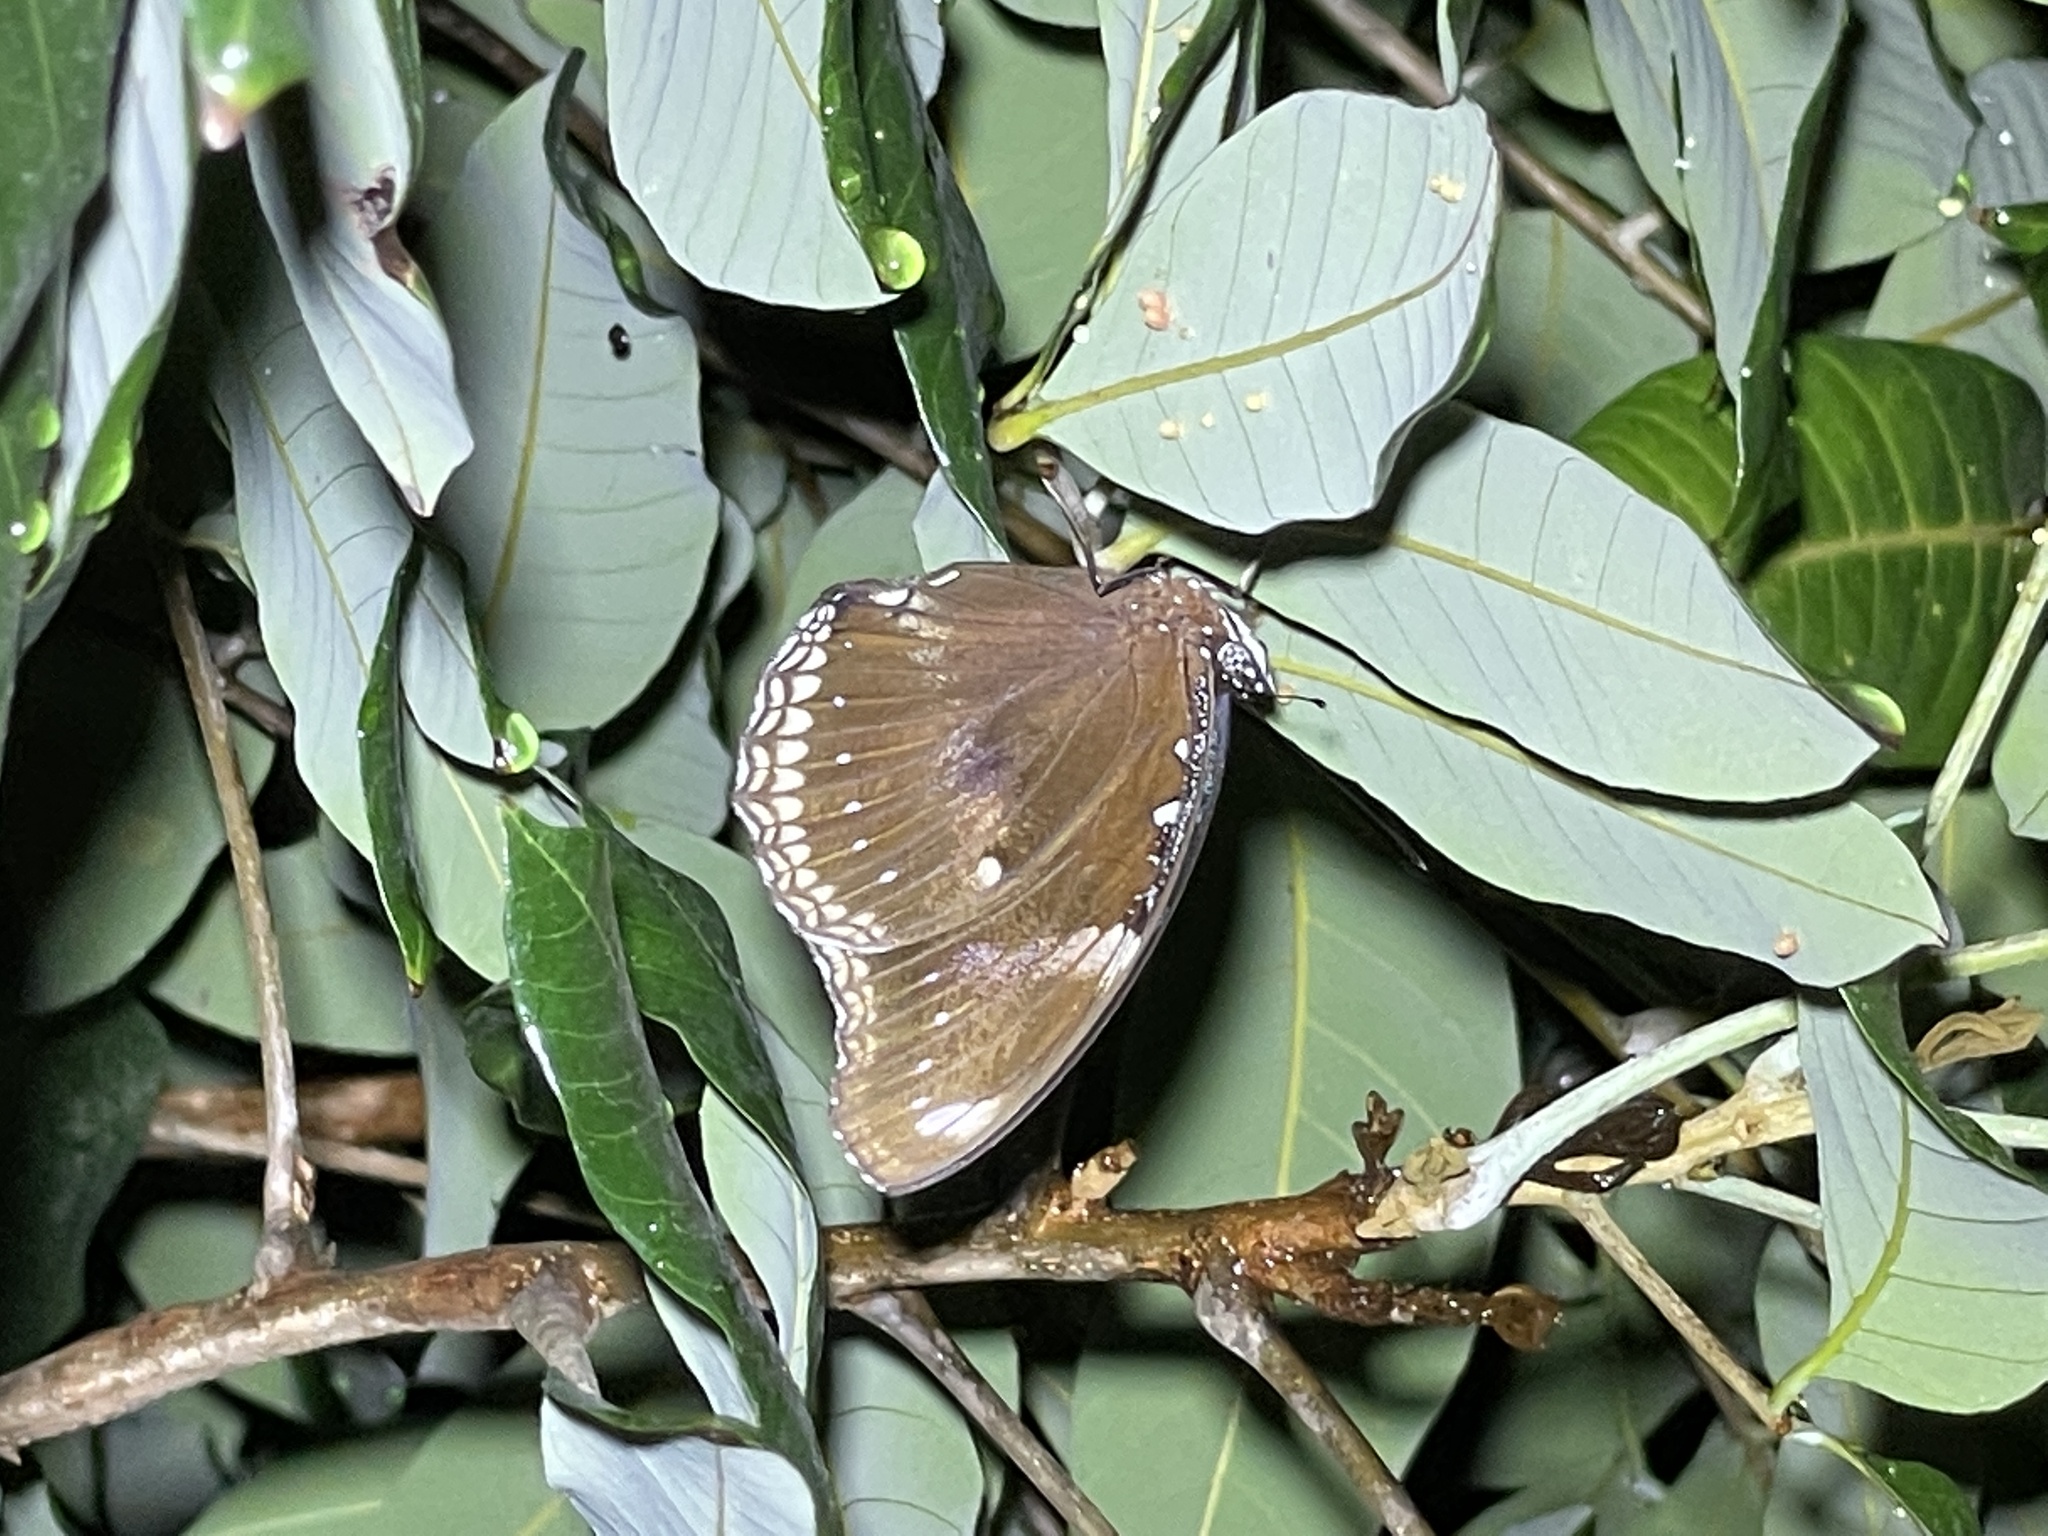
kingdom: Animalia
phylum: Arthropoda
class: Insecta
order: Lepidoptera
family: Nymphalidae
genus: Hypolimnas
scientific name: Hypolimnas bolina
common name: Great eggfly
